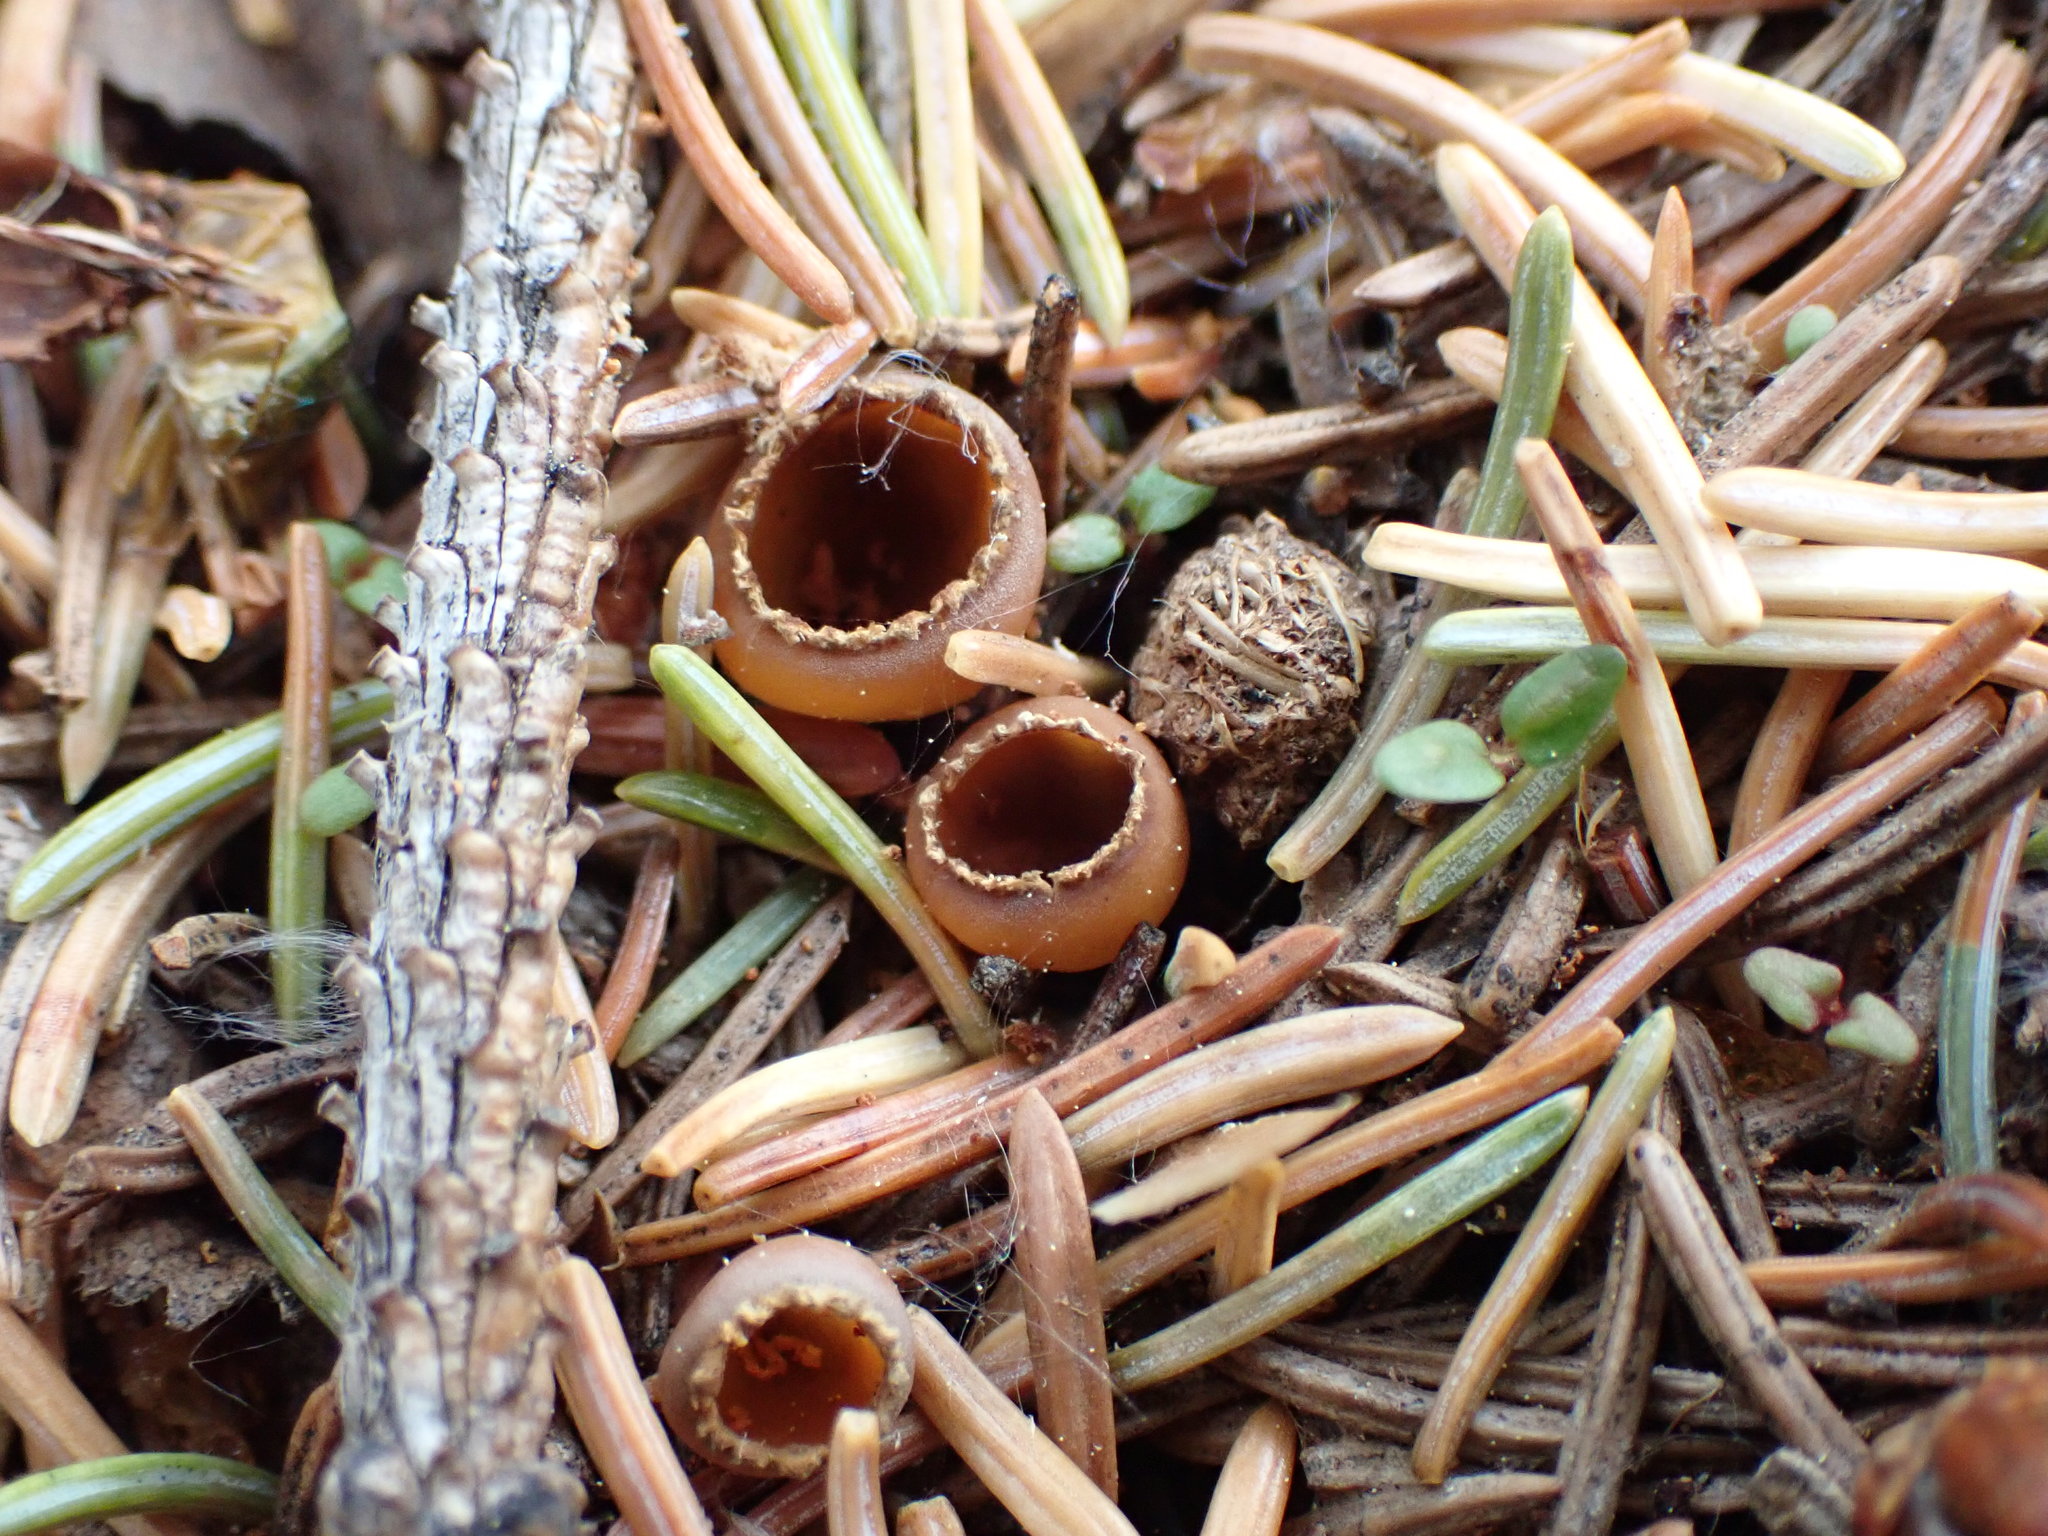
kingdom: Fungi
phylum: Ascomycota
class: Pezizomycetes
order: Pezizales
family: Pyronemataceae
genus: Geopyxis
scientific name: Geopyxis carbonaria
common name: Stalked bonfire cup
